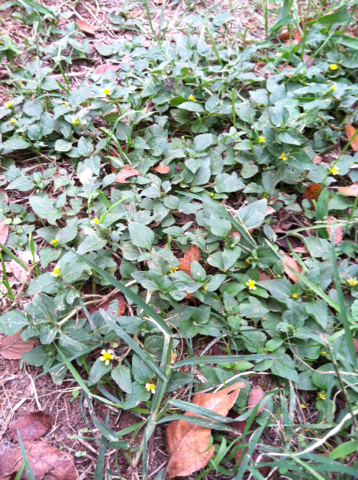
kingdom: Plantae
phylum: Tracheophyta
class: Magnoliopsida
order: Asterales
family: Asteraceae
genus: Calyptocarpus
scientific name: Calyptocarpus vialis
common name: Straggler daisy
